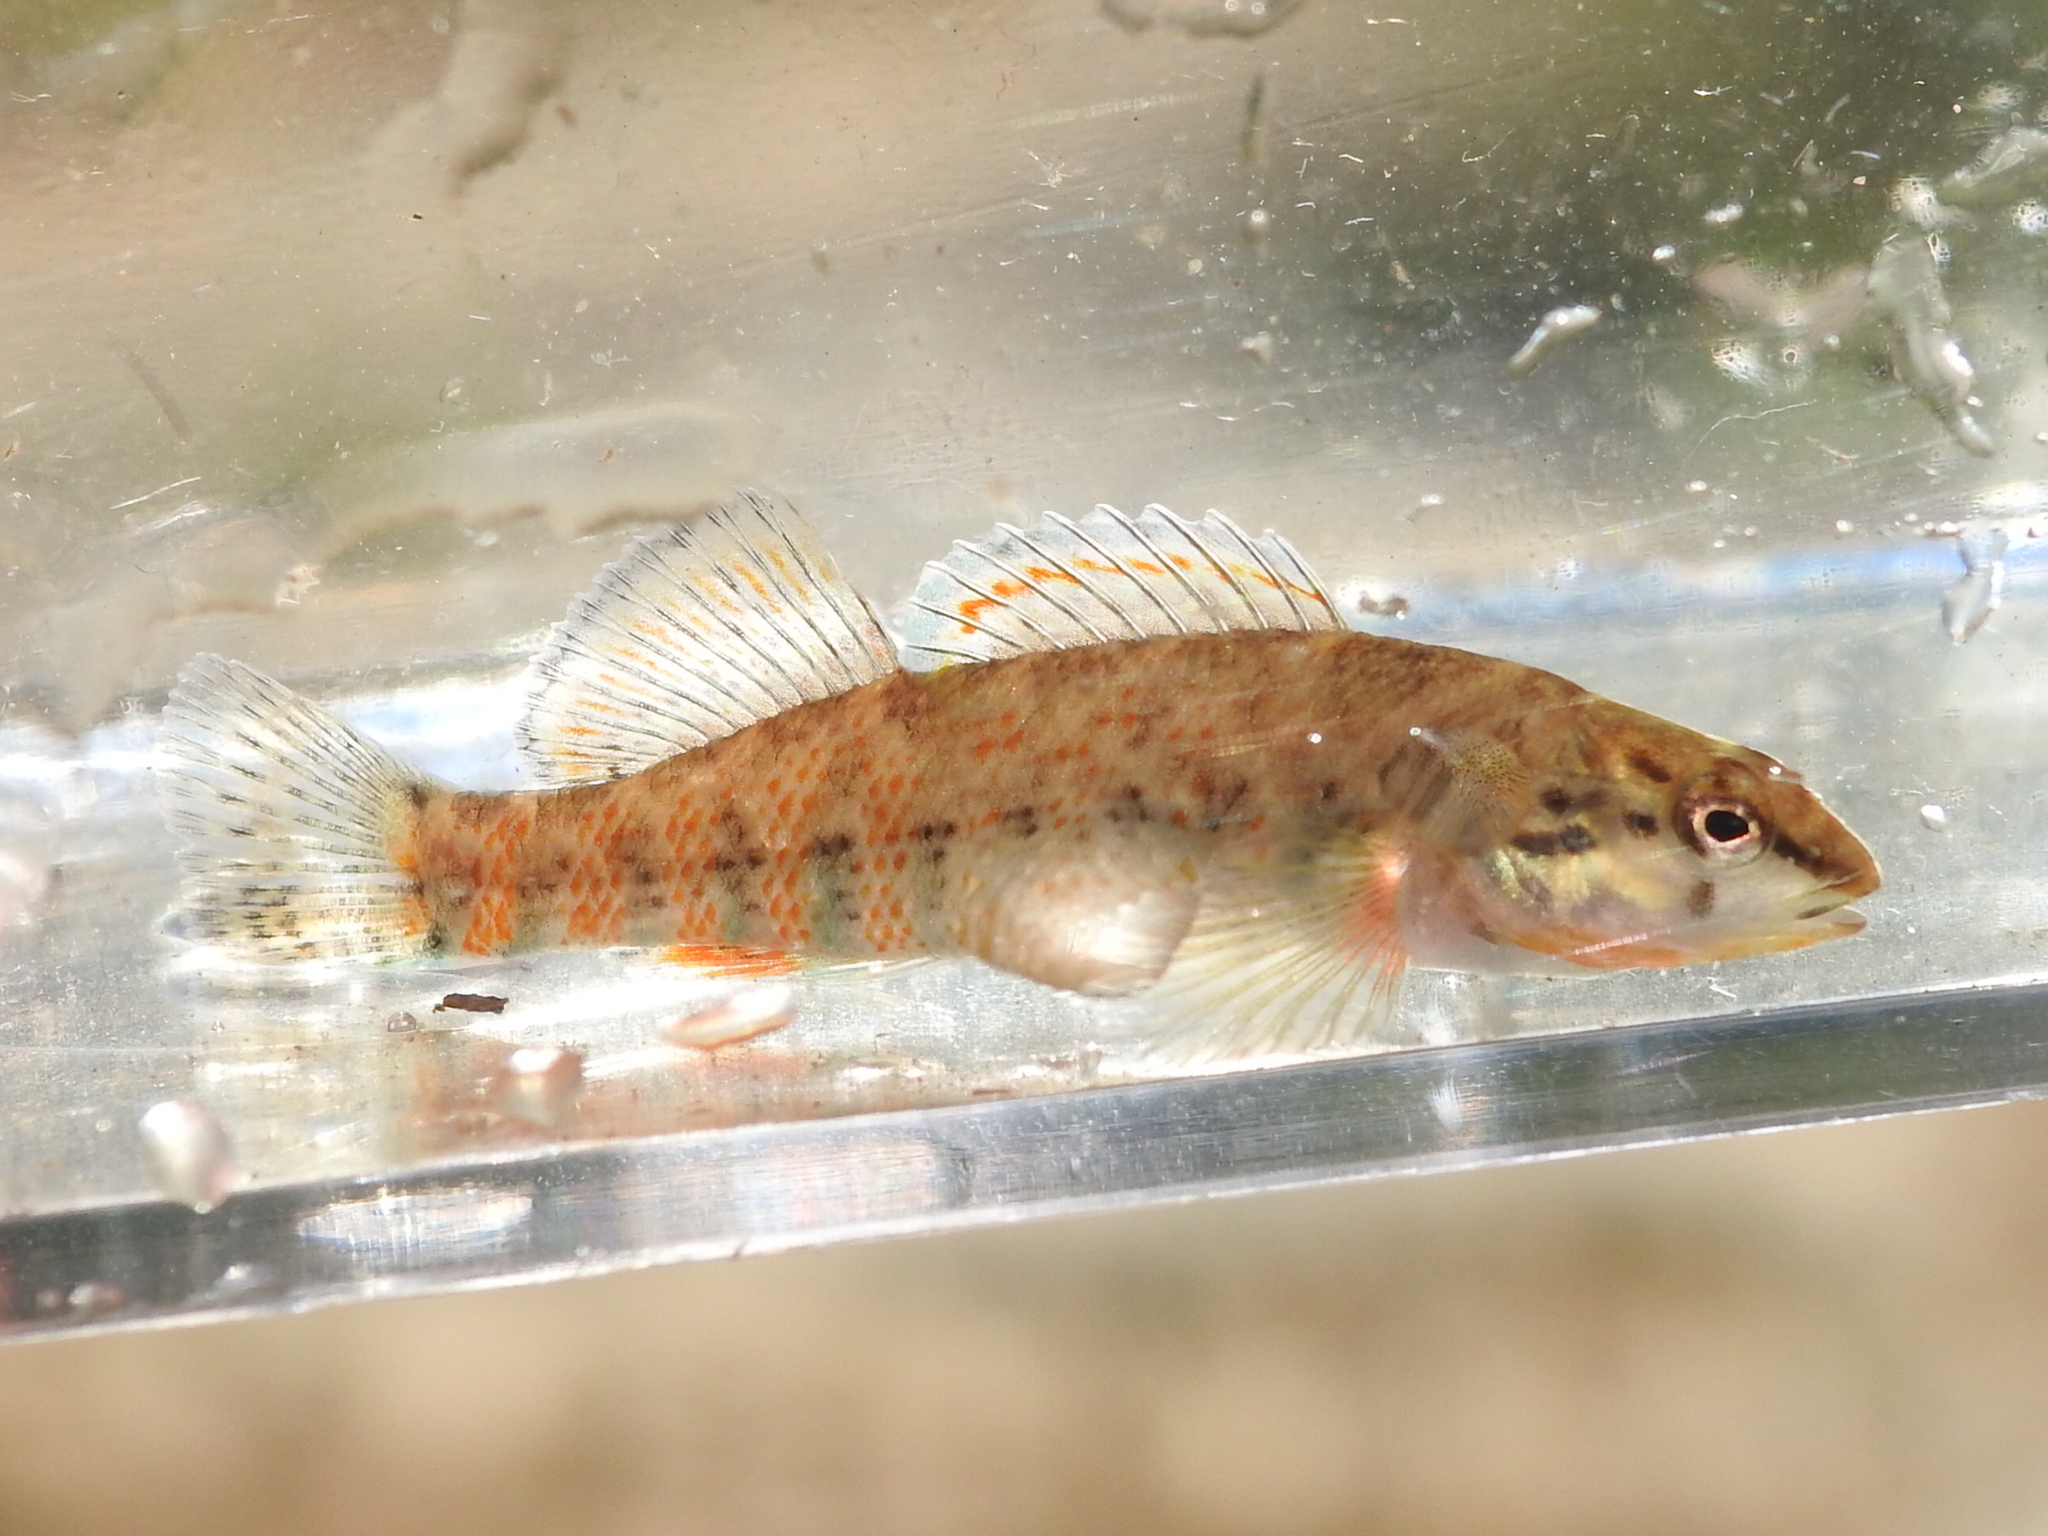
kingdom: Animalia
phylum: Chordata
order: Perciformes
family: Percidae
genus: Etheostoma
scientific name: Etheostoma caeruleum
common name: Rainbow darter
